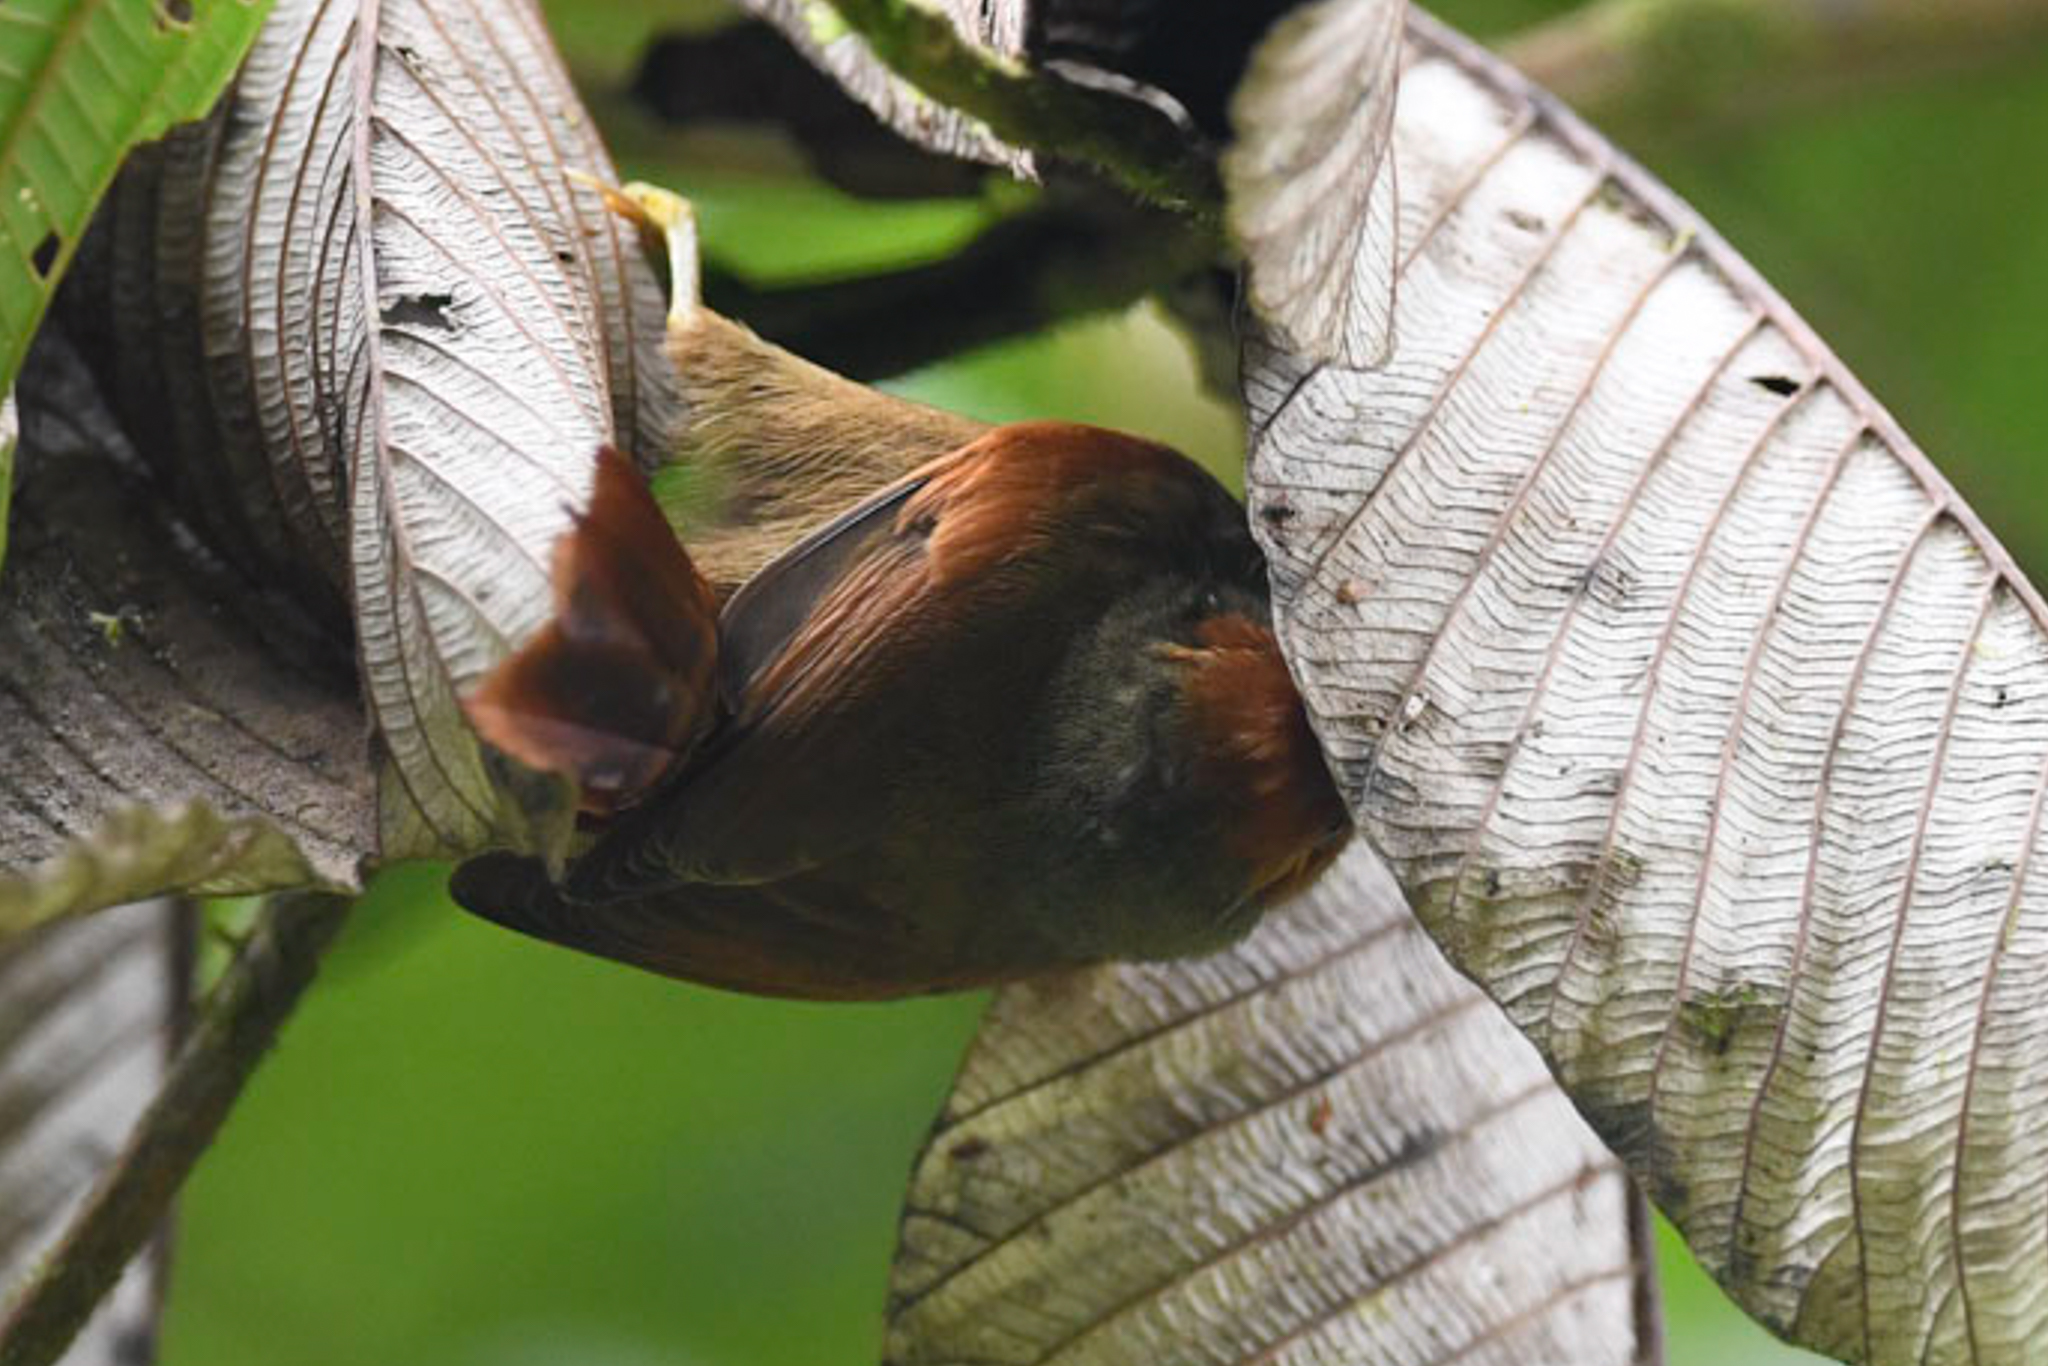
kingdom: Animalia
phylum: Chordata
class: Aves
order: Passeriformes
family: Furnariidae
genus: Cranioleuca
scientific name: Cranioleuca erythrops
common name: Red-faced spinetail
